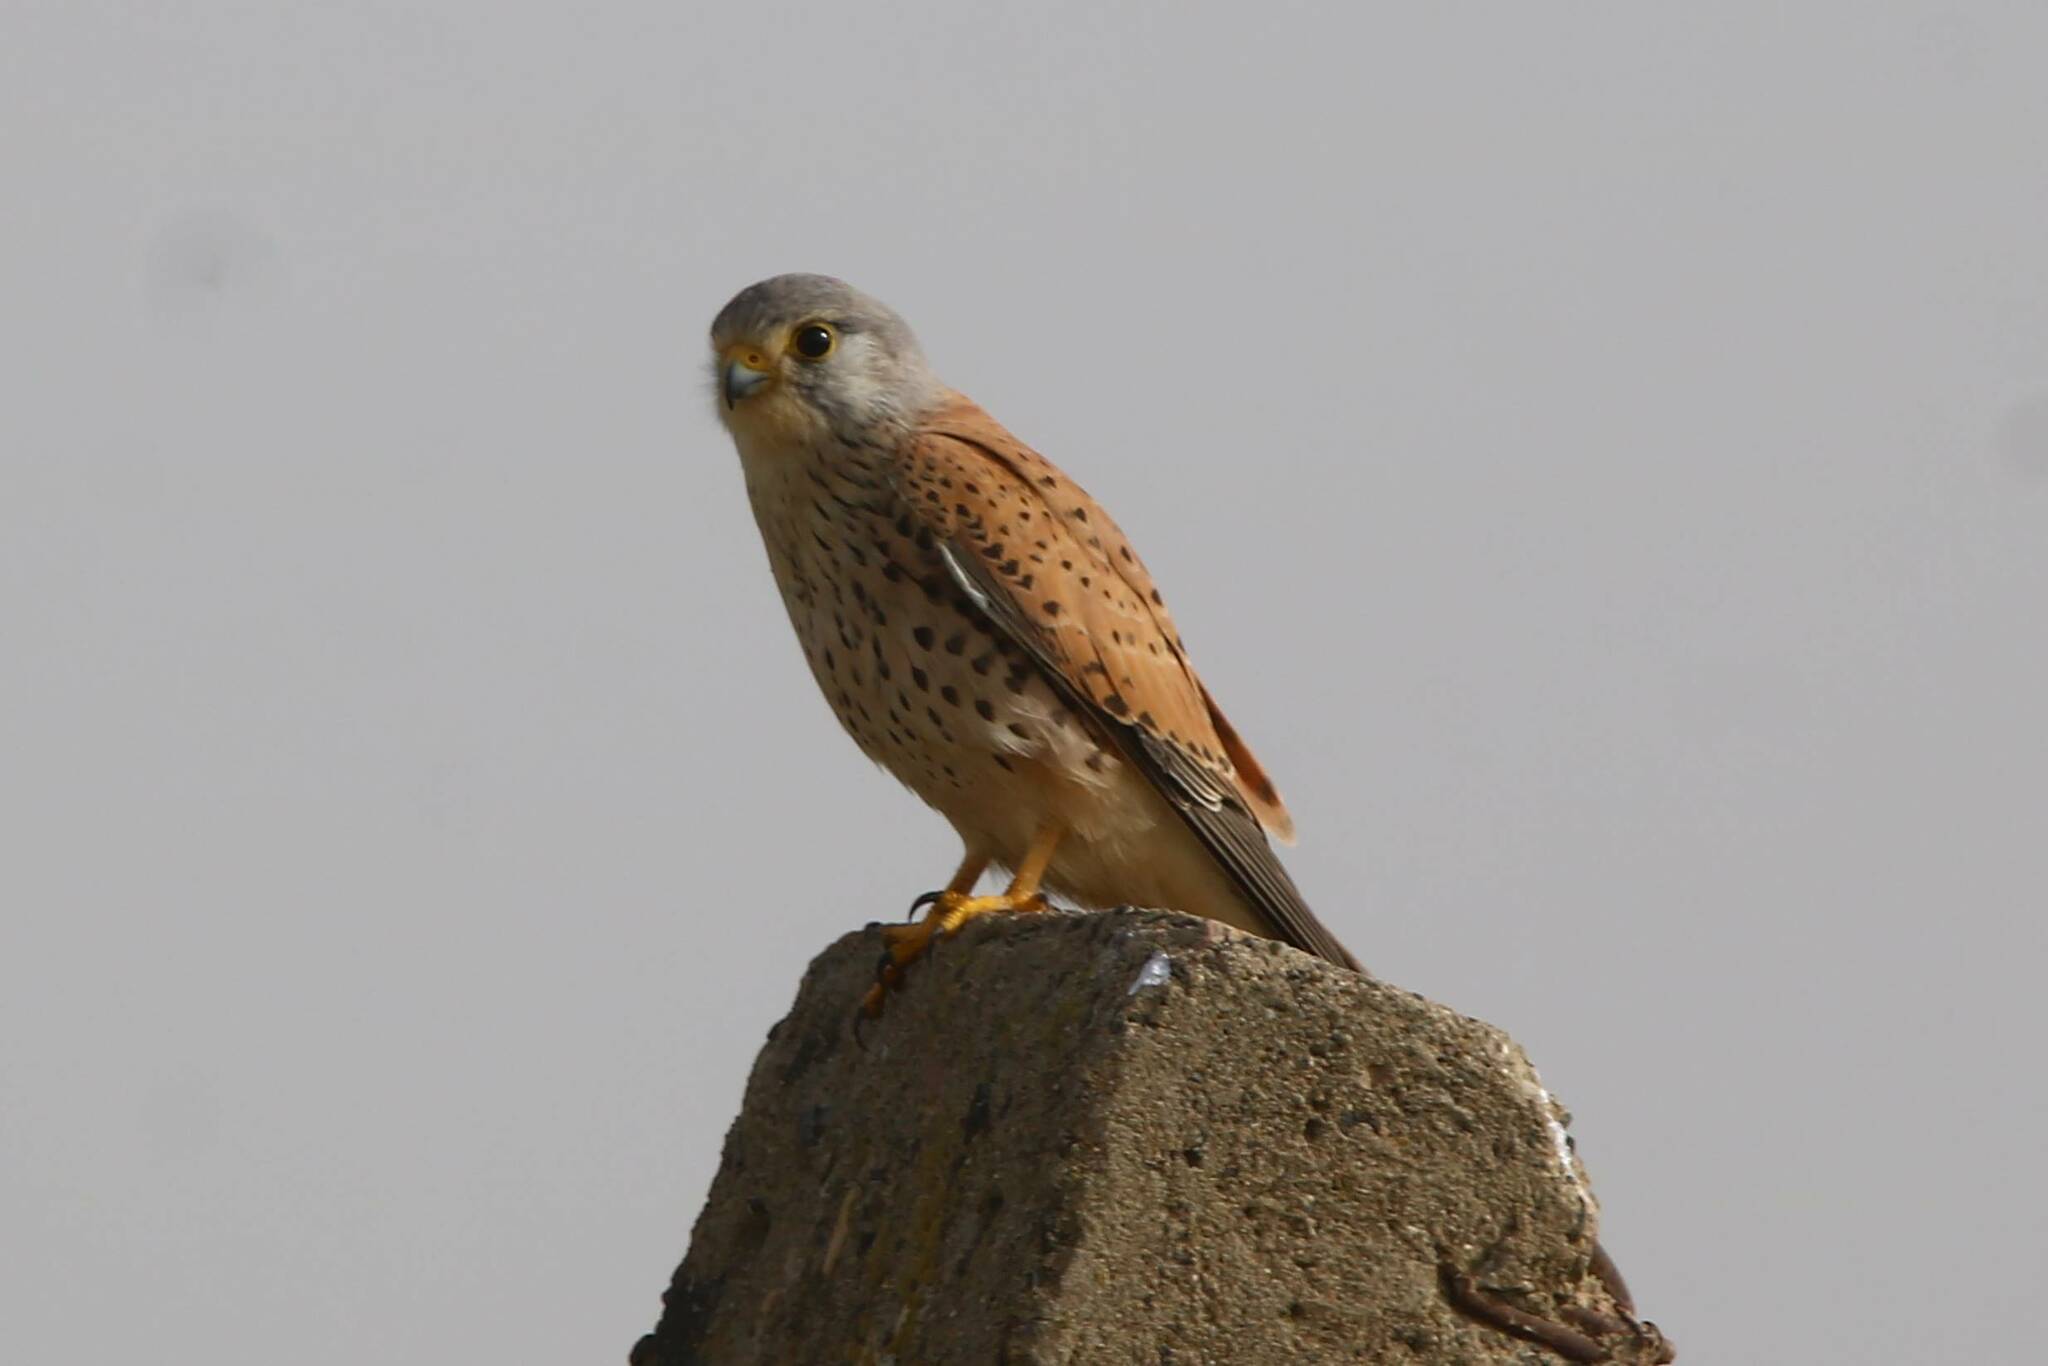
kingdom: Animalia
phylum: Chordata
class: Aves
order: Falconiformes
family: Falconidae
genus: Falco
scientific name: Falco tinnunculus
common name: Common kestrel
